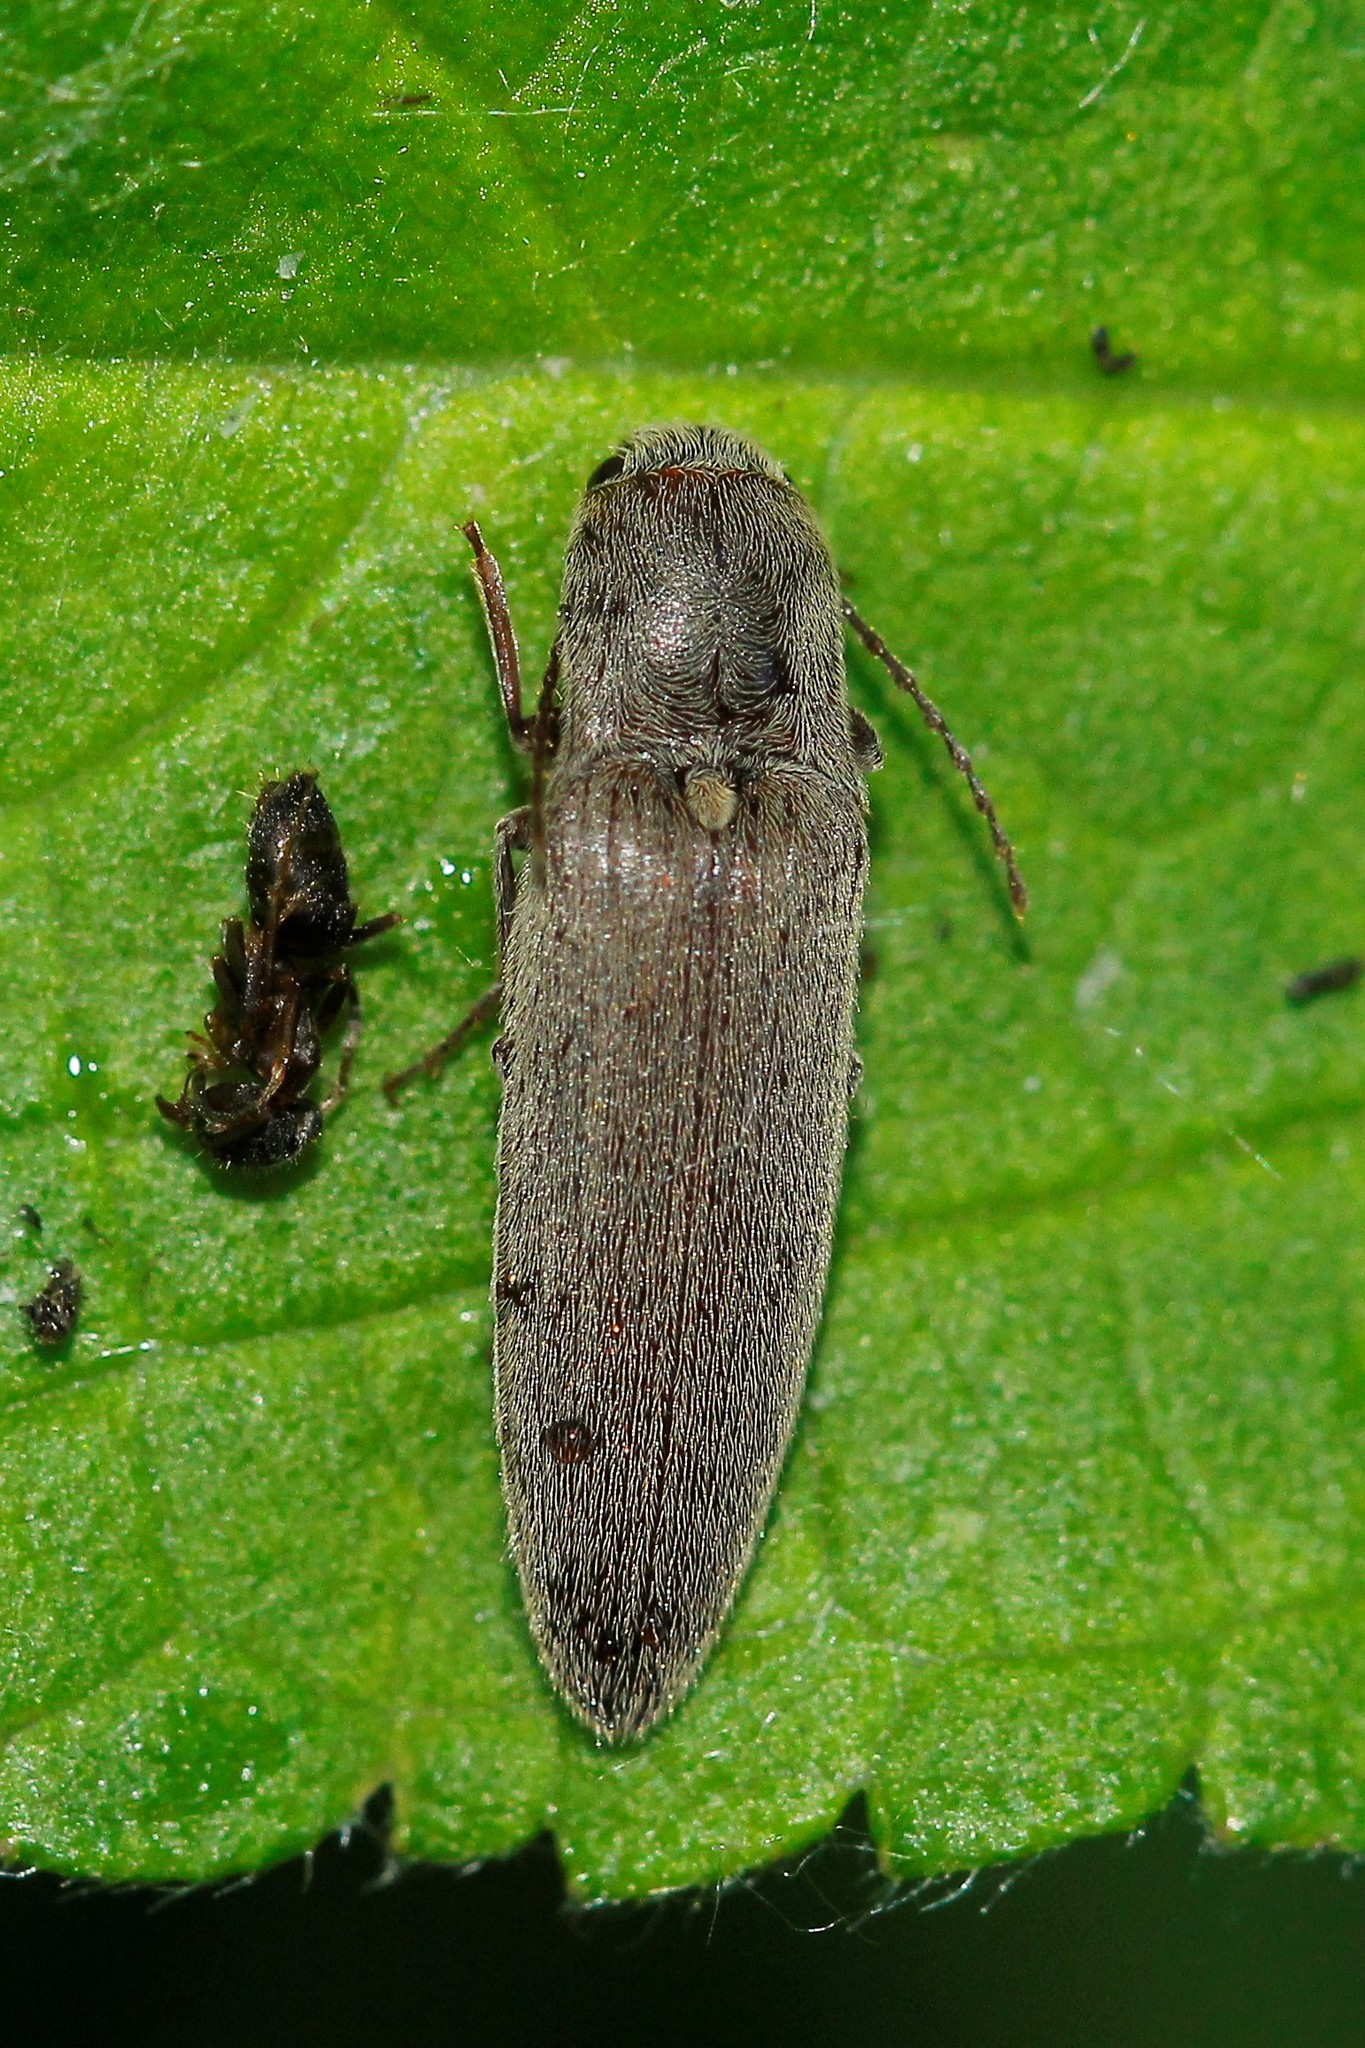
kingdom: Animalia
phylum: Arthropoda
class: Insecta
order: Coleoptera
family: Elateridae
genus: Synaptus
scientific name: Synaptus filiformis
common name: Hairy click beetle
